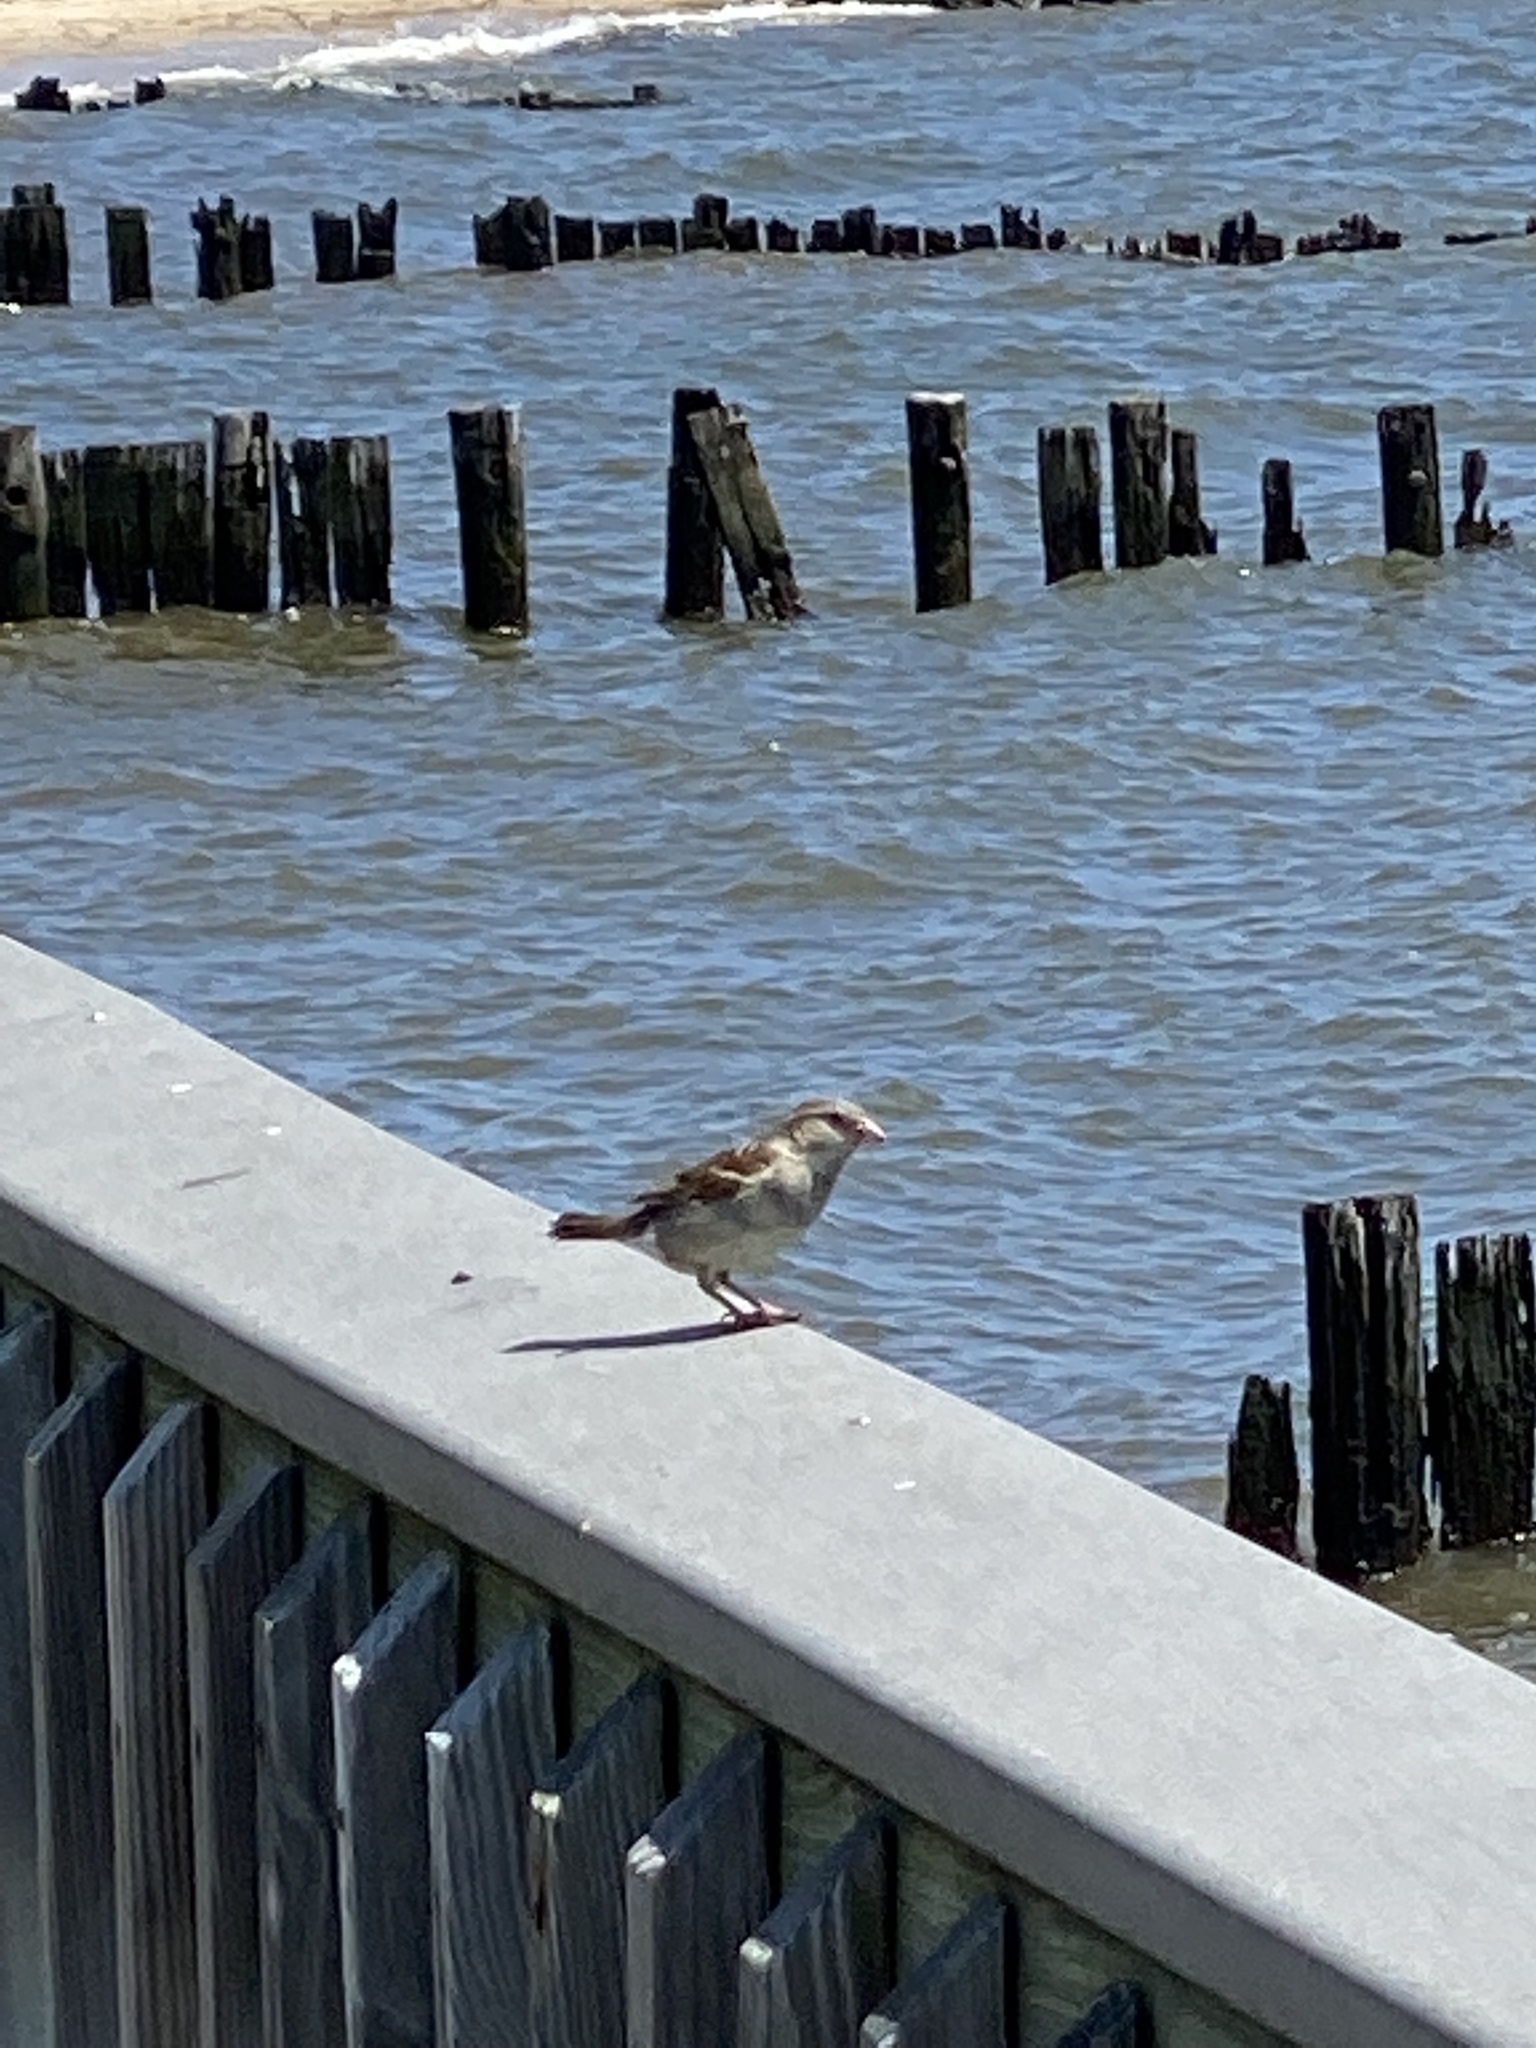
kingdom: Animalia
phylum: Chordata
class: Aves
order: Passeriformes
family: Passeridae
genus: Passer
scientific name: Passer domesticus
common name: House sparrow
